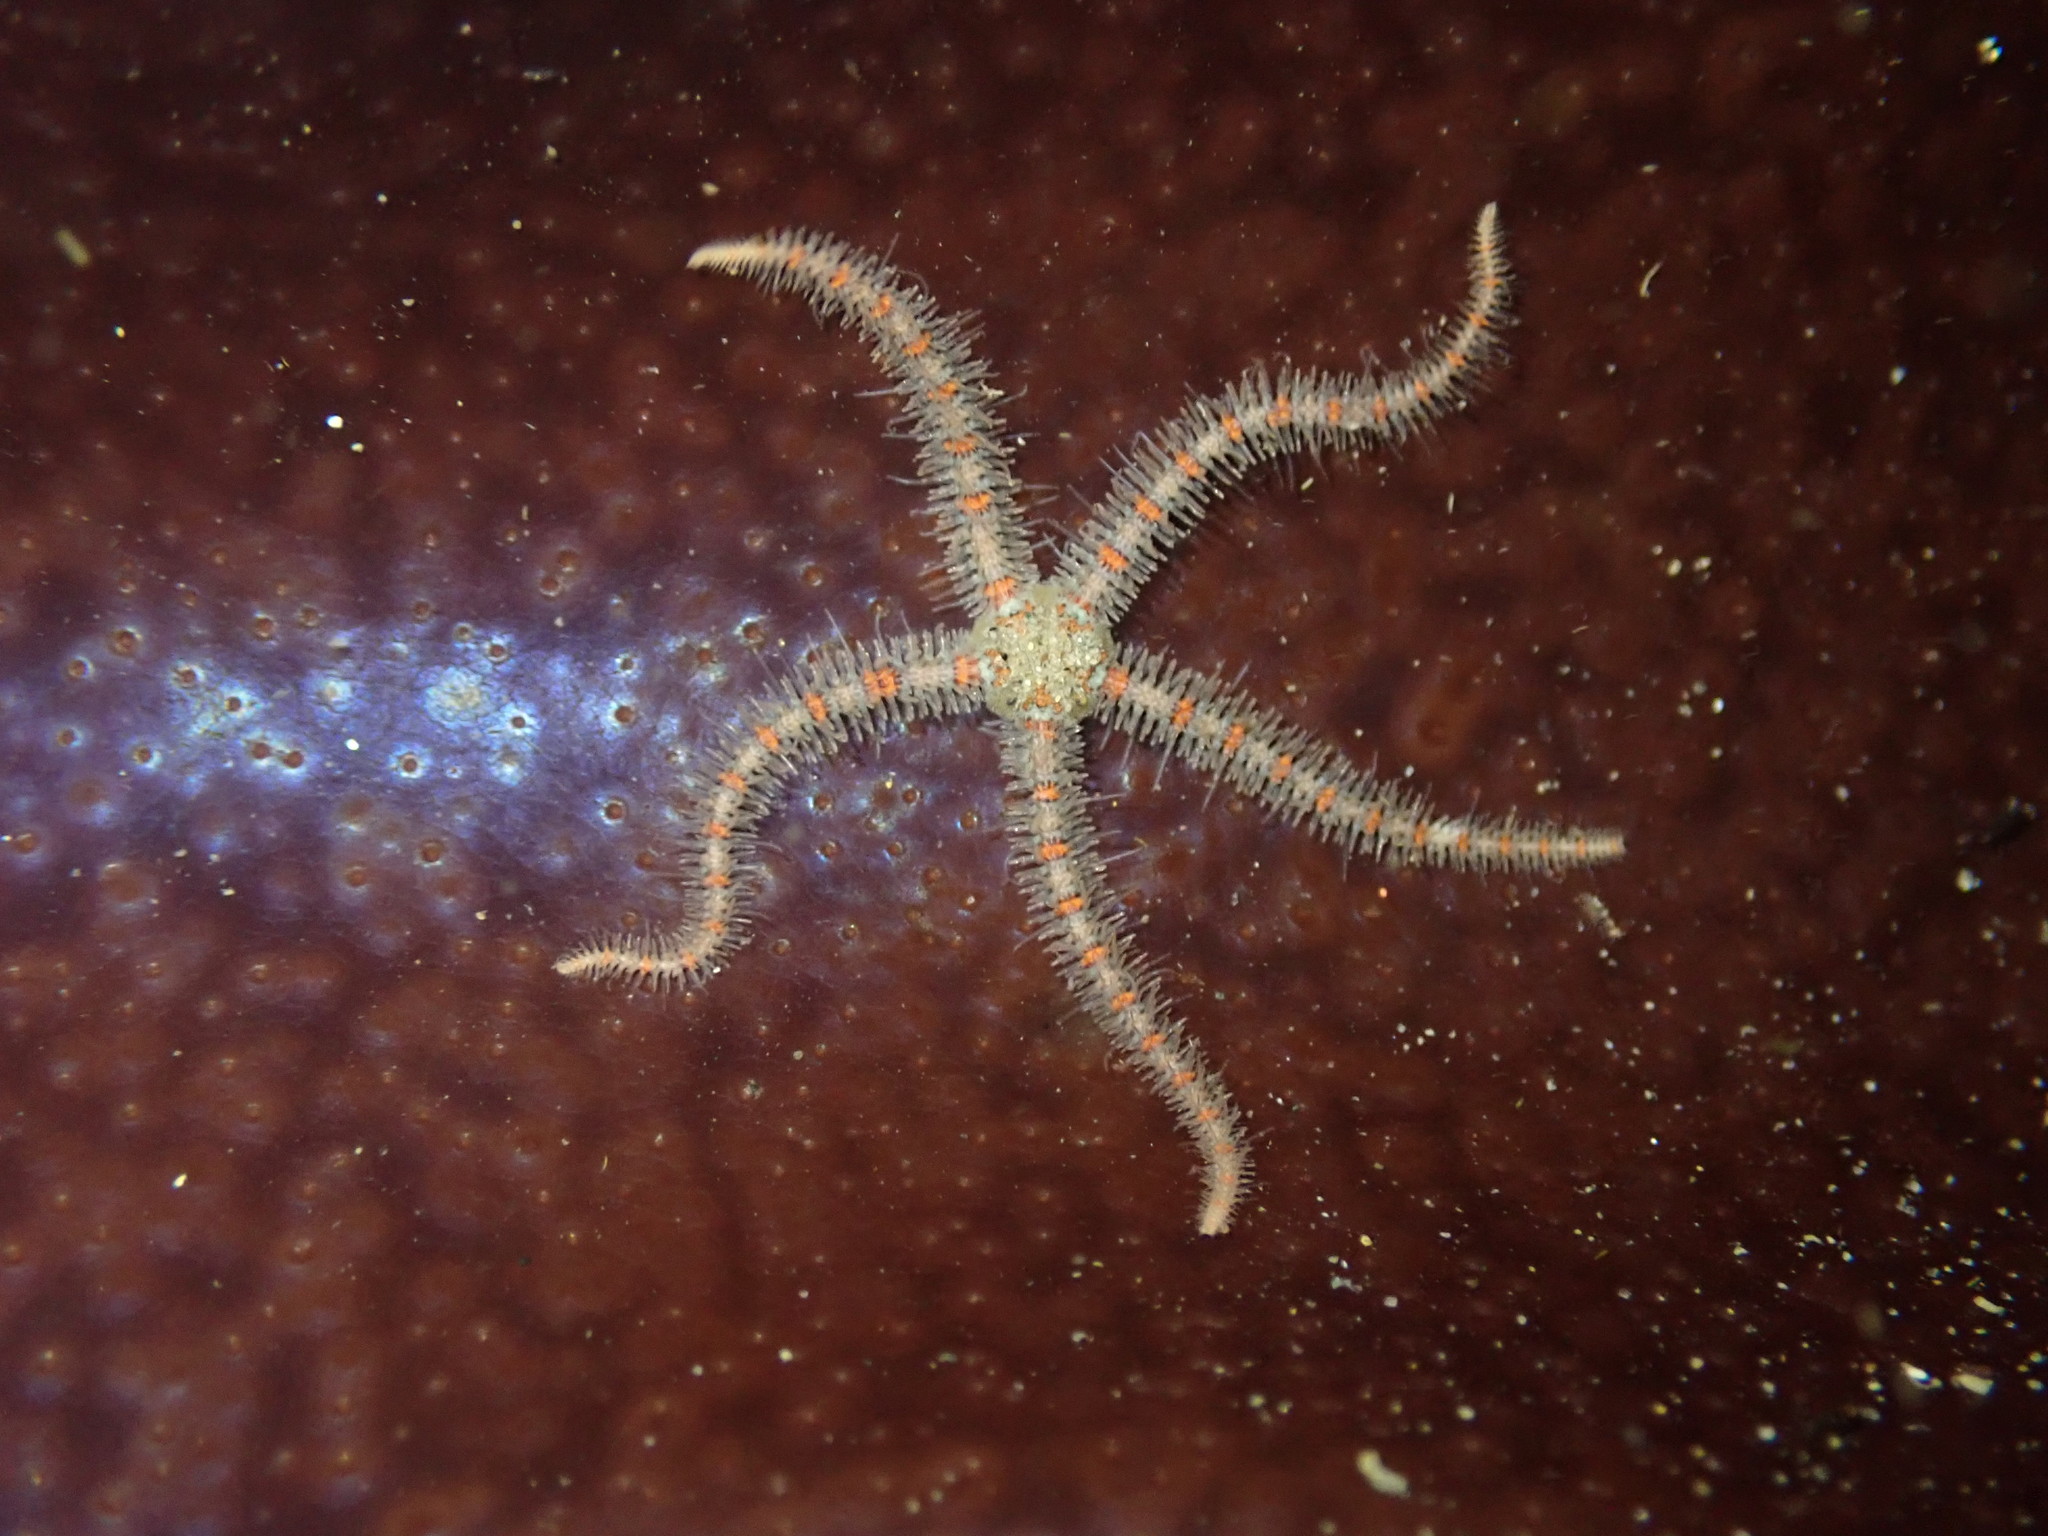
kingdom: Animalia
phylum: Echinodermata
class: Ophiuroidea
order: Amphilepidida
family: Ophiotrichidae
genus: Ophiothrix
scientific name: Ophiothrix spiculata
